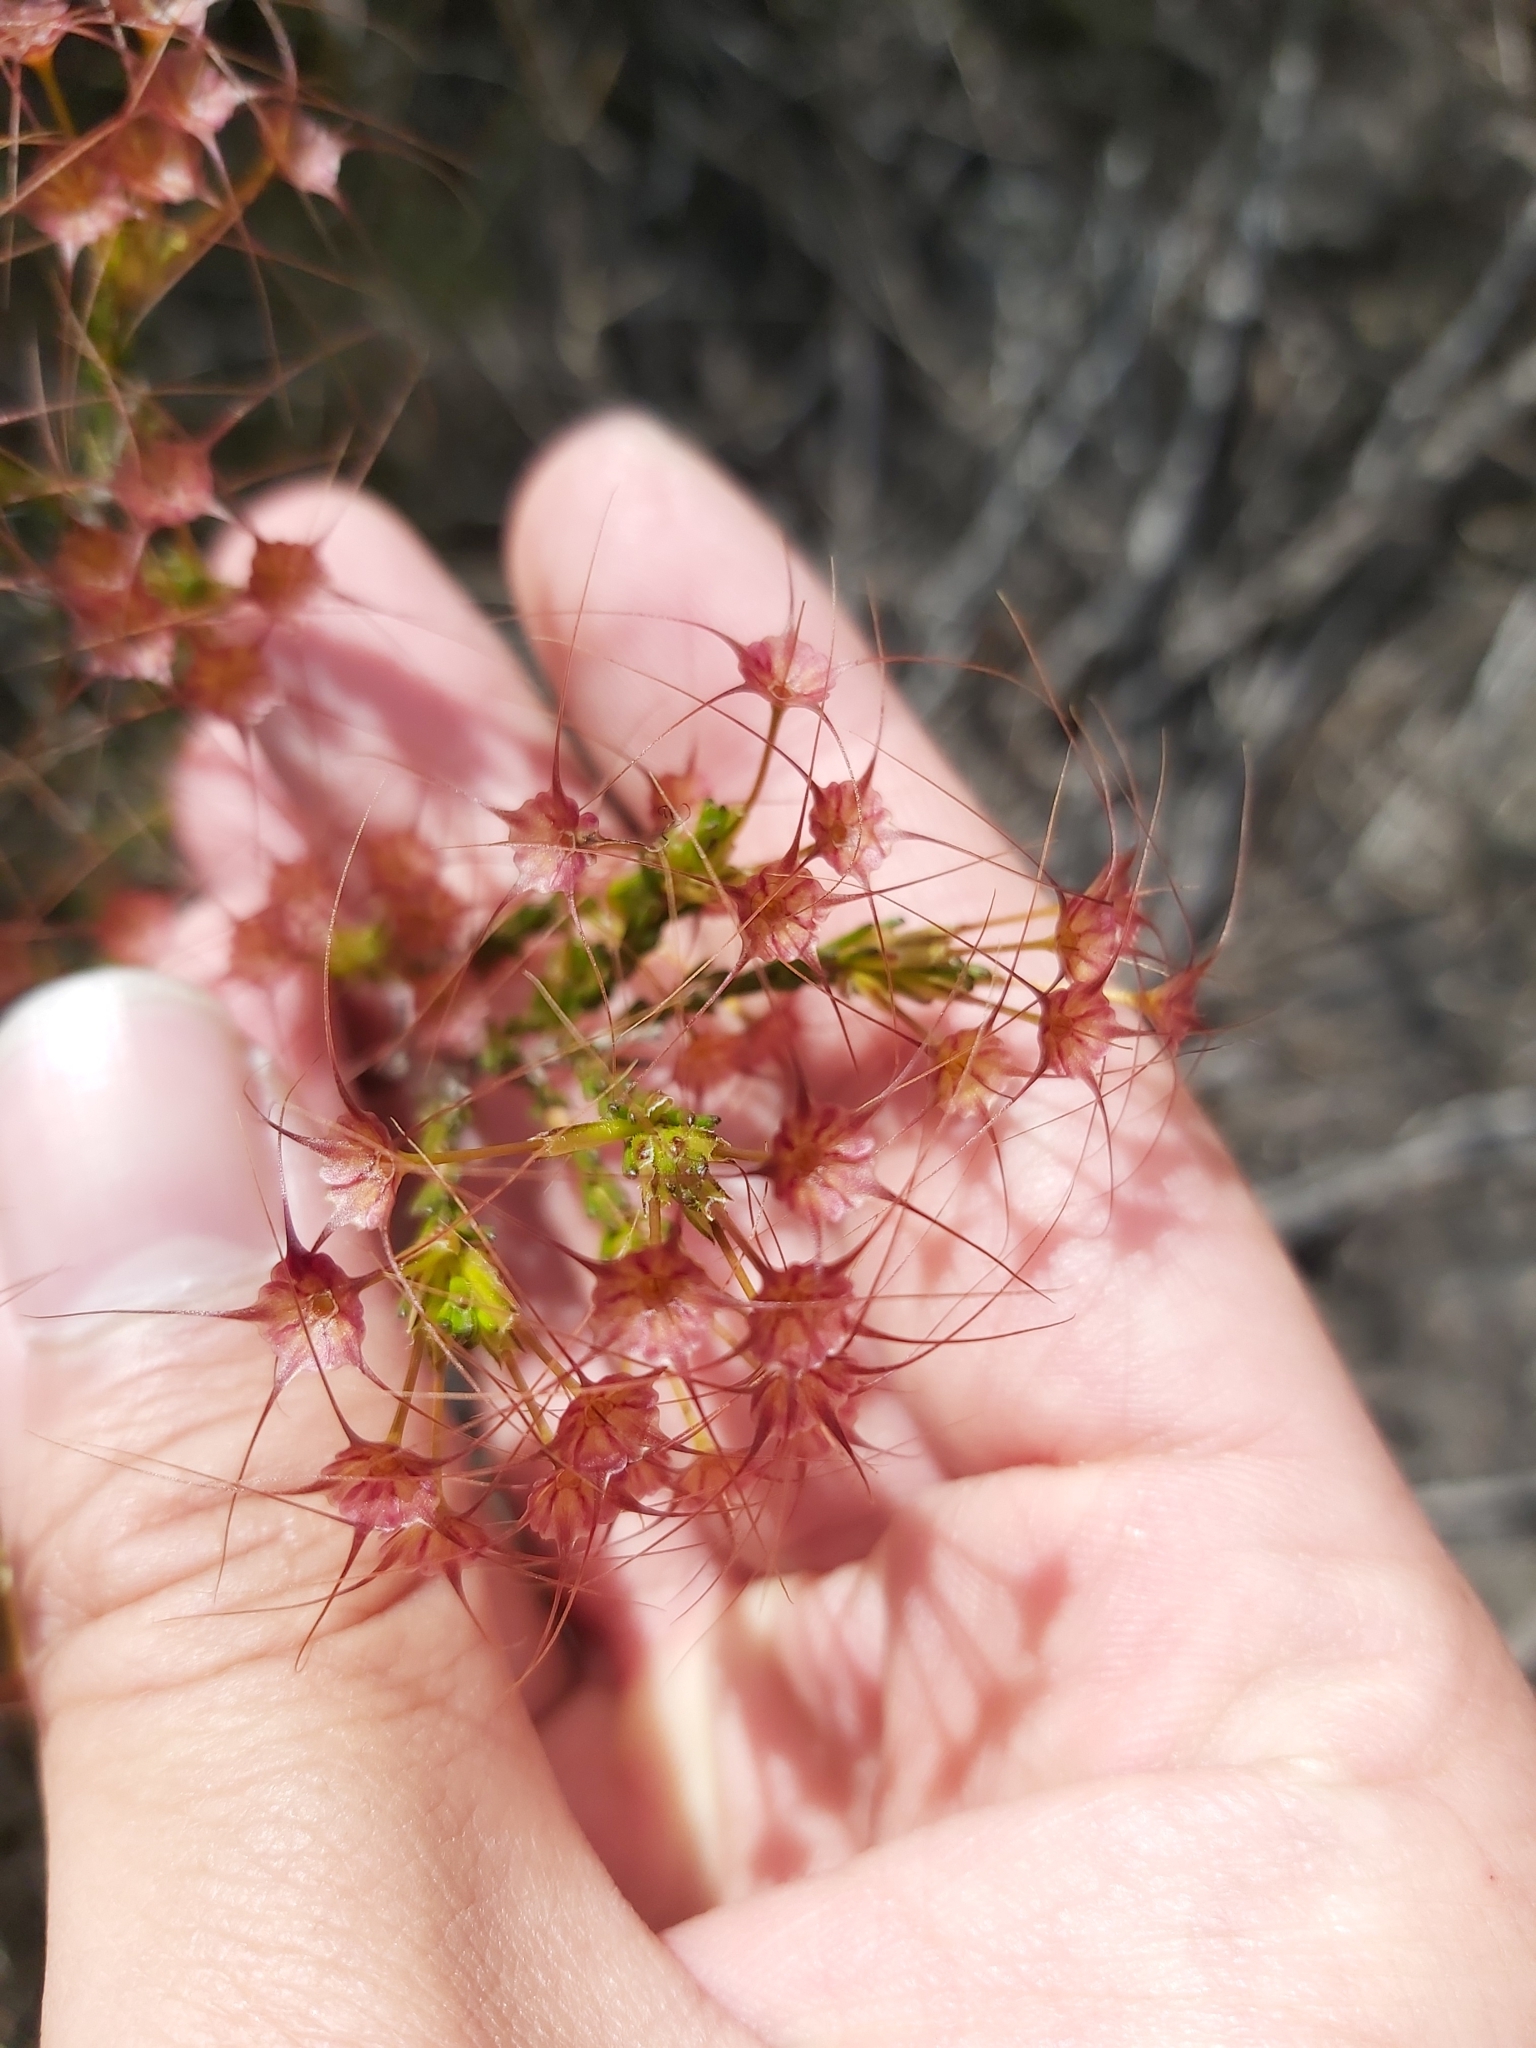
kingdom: Plantae
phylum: Tracheophyta
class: Magnoliopsida
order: Myrtales
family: Myrtaceae
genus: Calytrix
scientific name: Calytrix tetragona
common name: Common fringe myrtle
